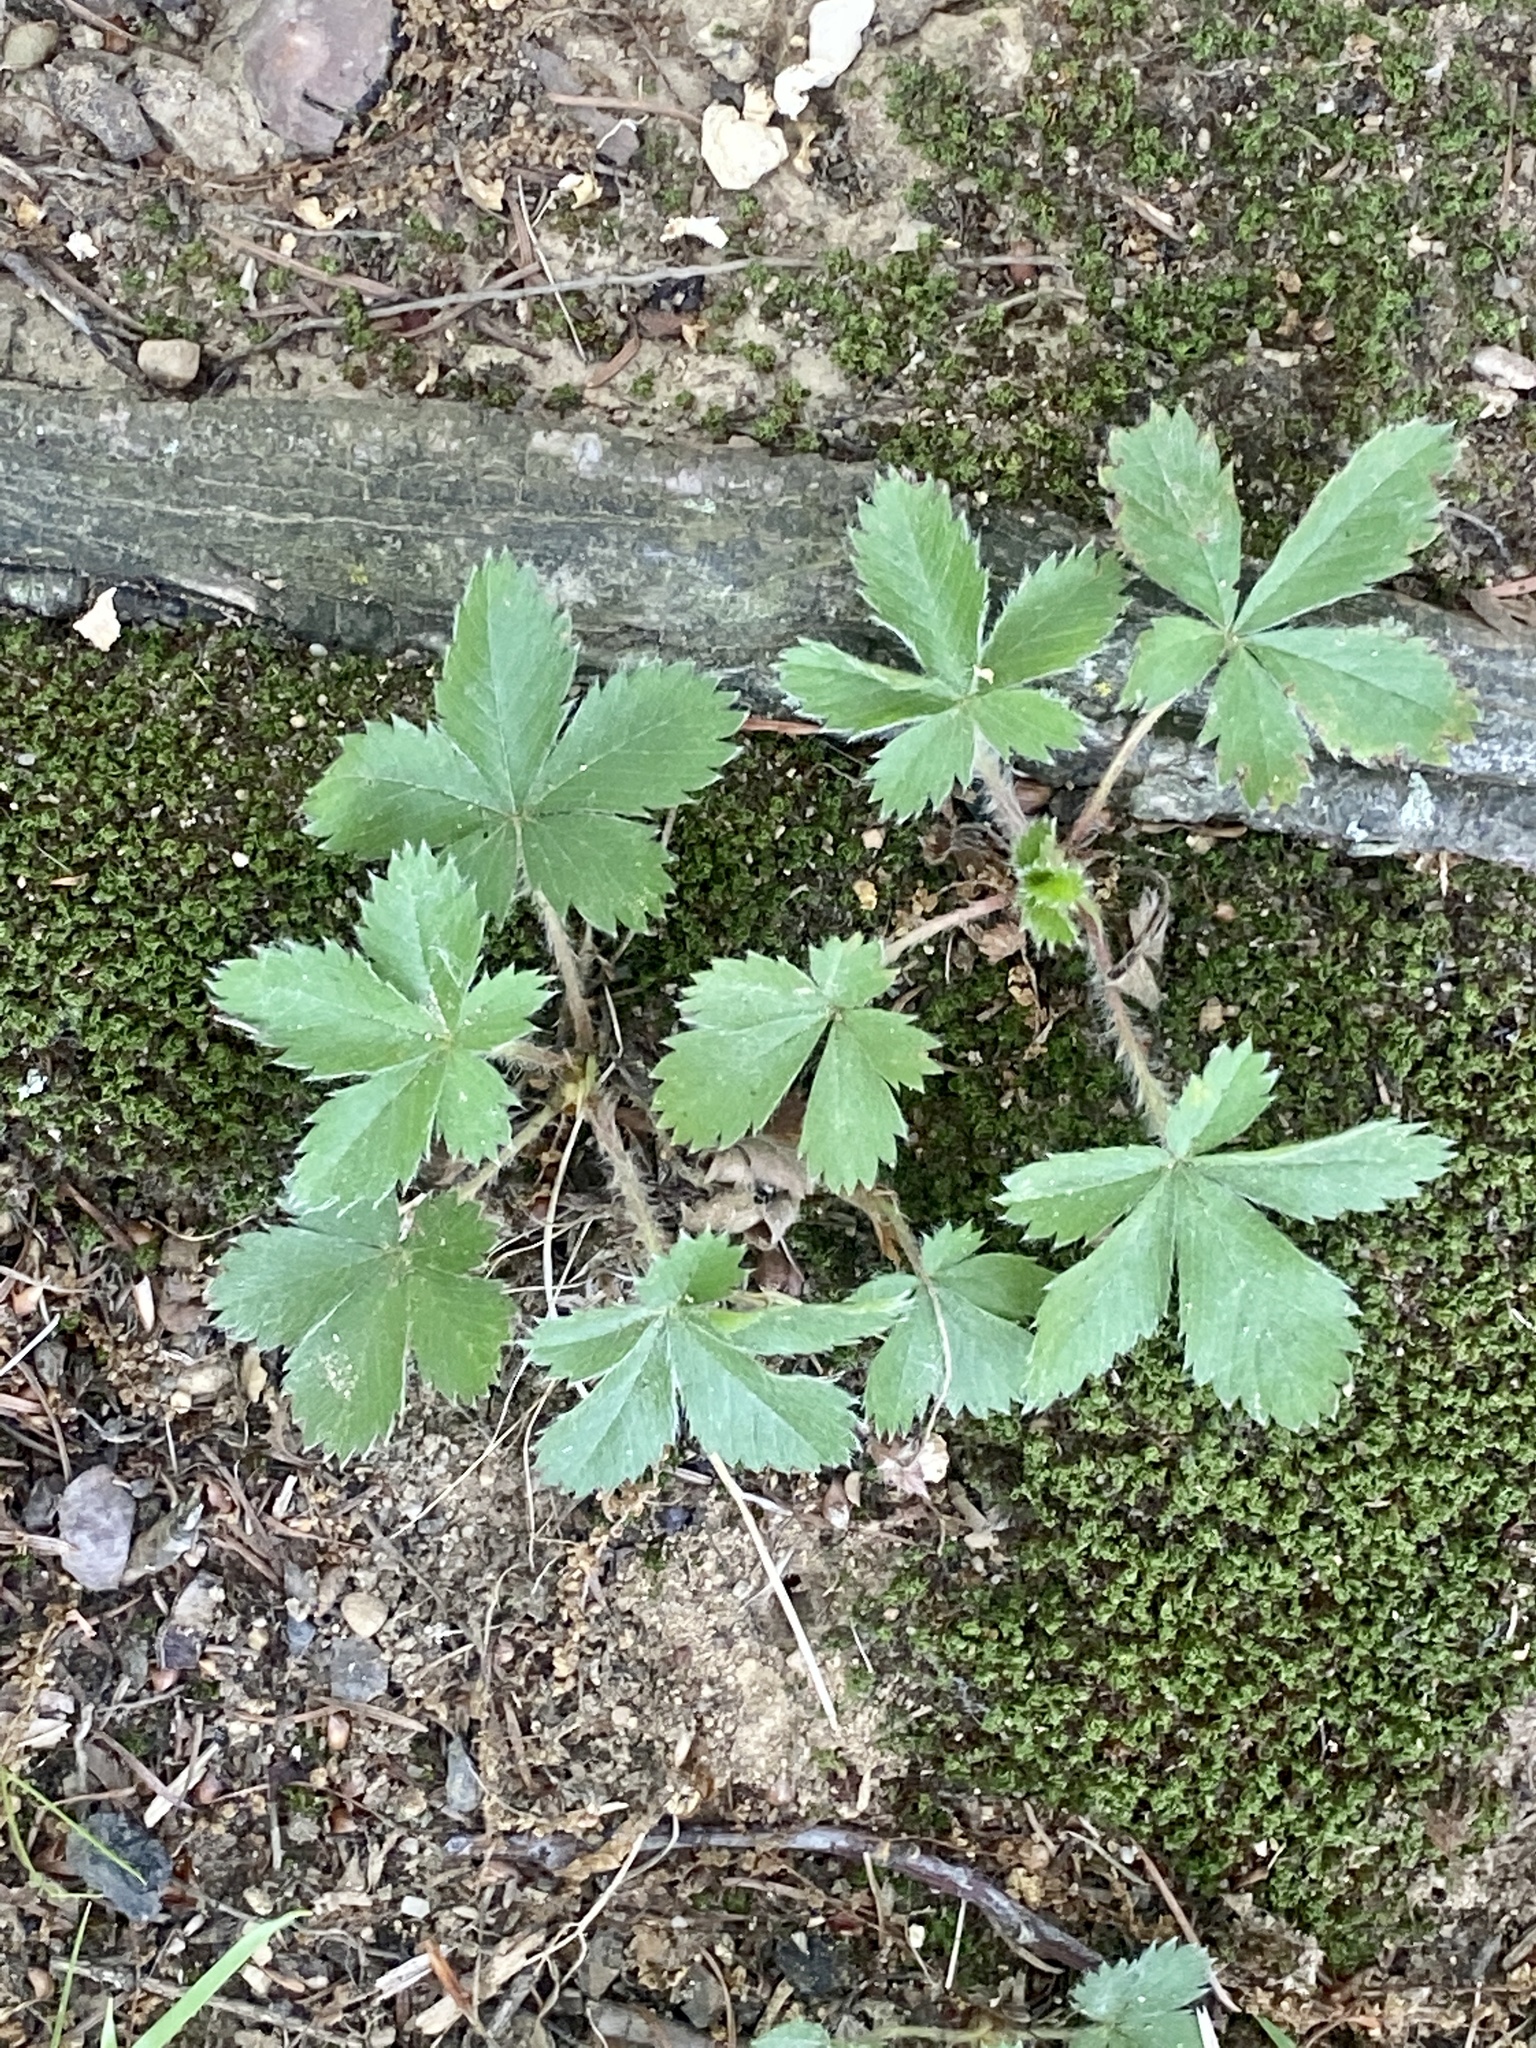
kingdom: Plantae
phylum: Tracheophyta
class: Magnoliopsida
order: Rosales
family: Rosaceae
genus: Potentilla
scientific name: Potentilla canadensis
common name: Canada cinquefoil
